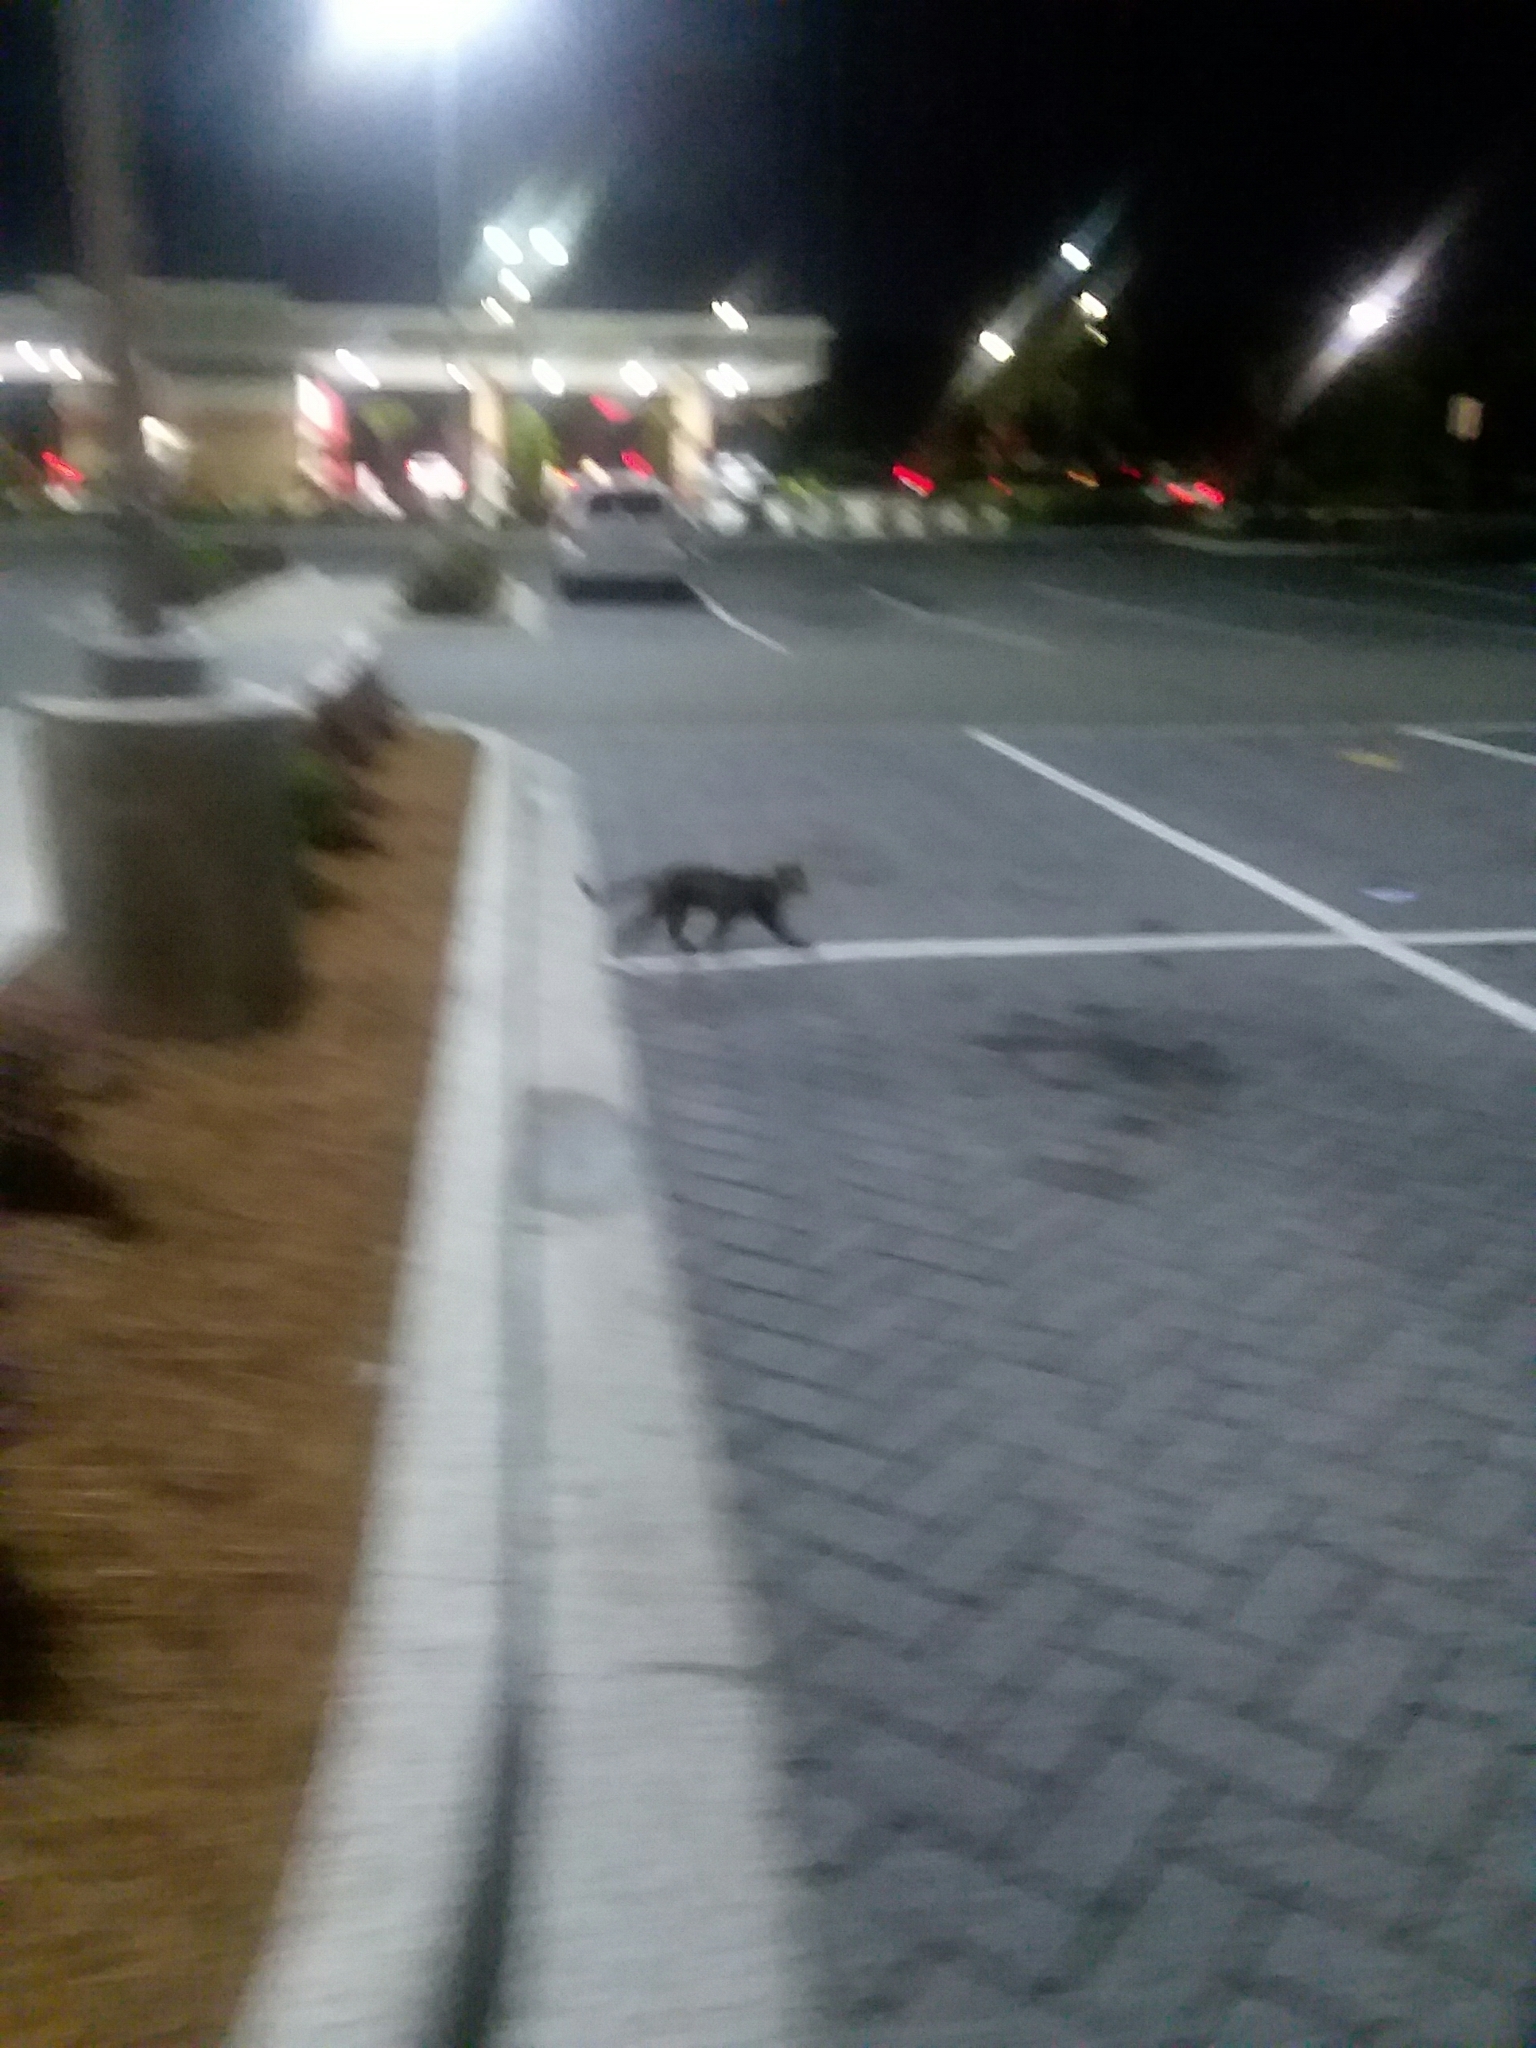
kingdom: Animalia
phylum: Chordata
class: Mammalia
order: Carnivora
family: Felidae
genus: Felis
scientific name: Felis catus
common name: Domestic cat
